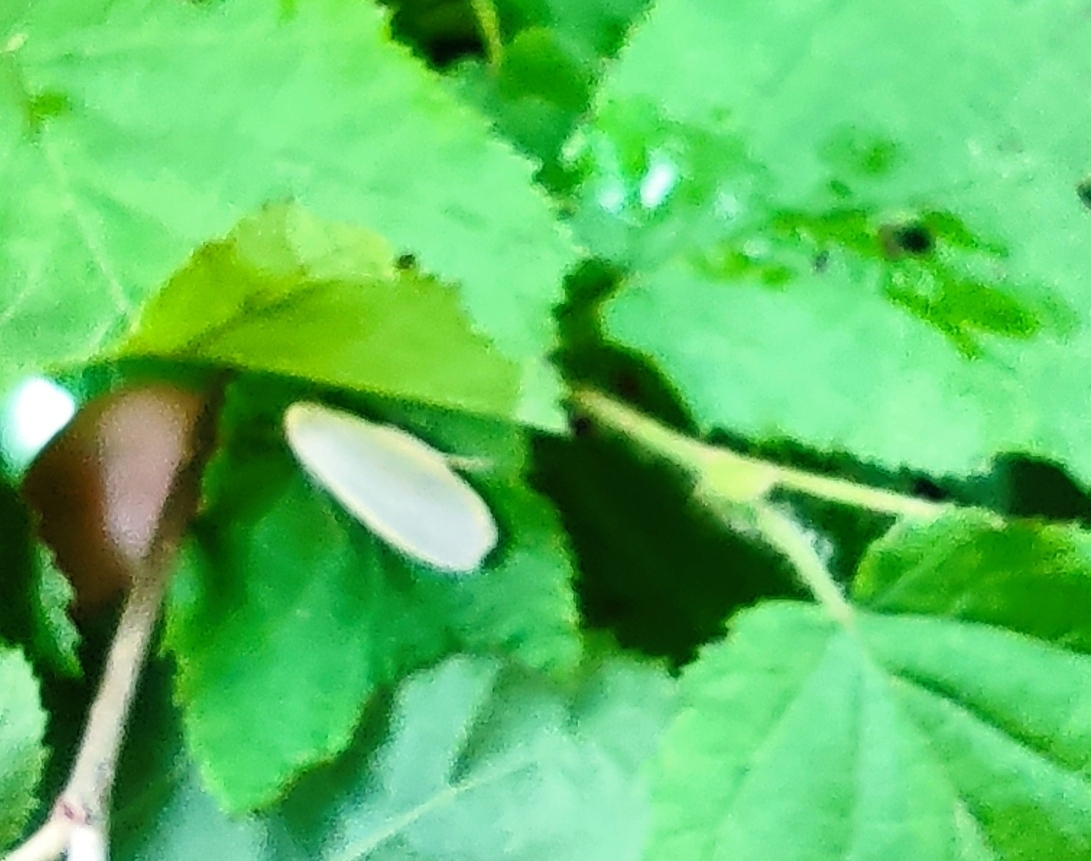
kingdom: Animalia
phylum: Arthropoda
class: Insecta
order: Lepidoptera
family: Erebidae
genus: Collita
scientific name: Collita griseola
